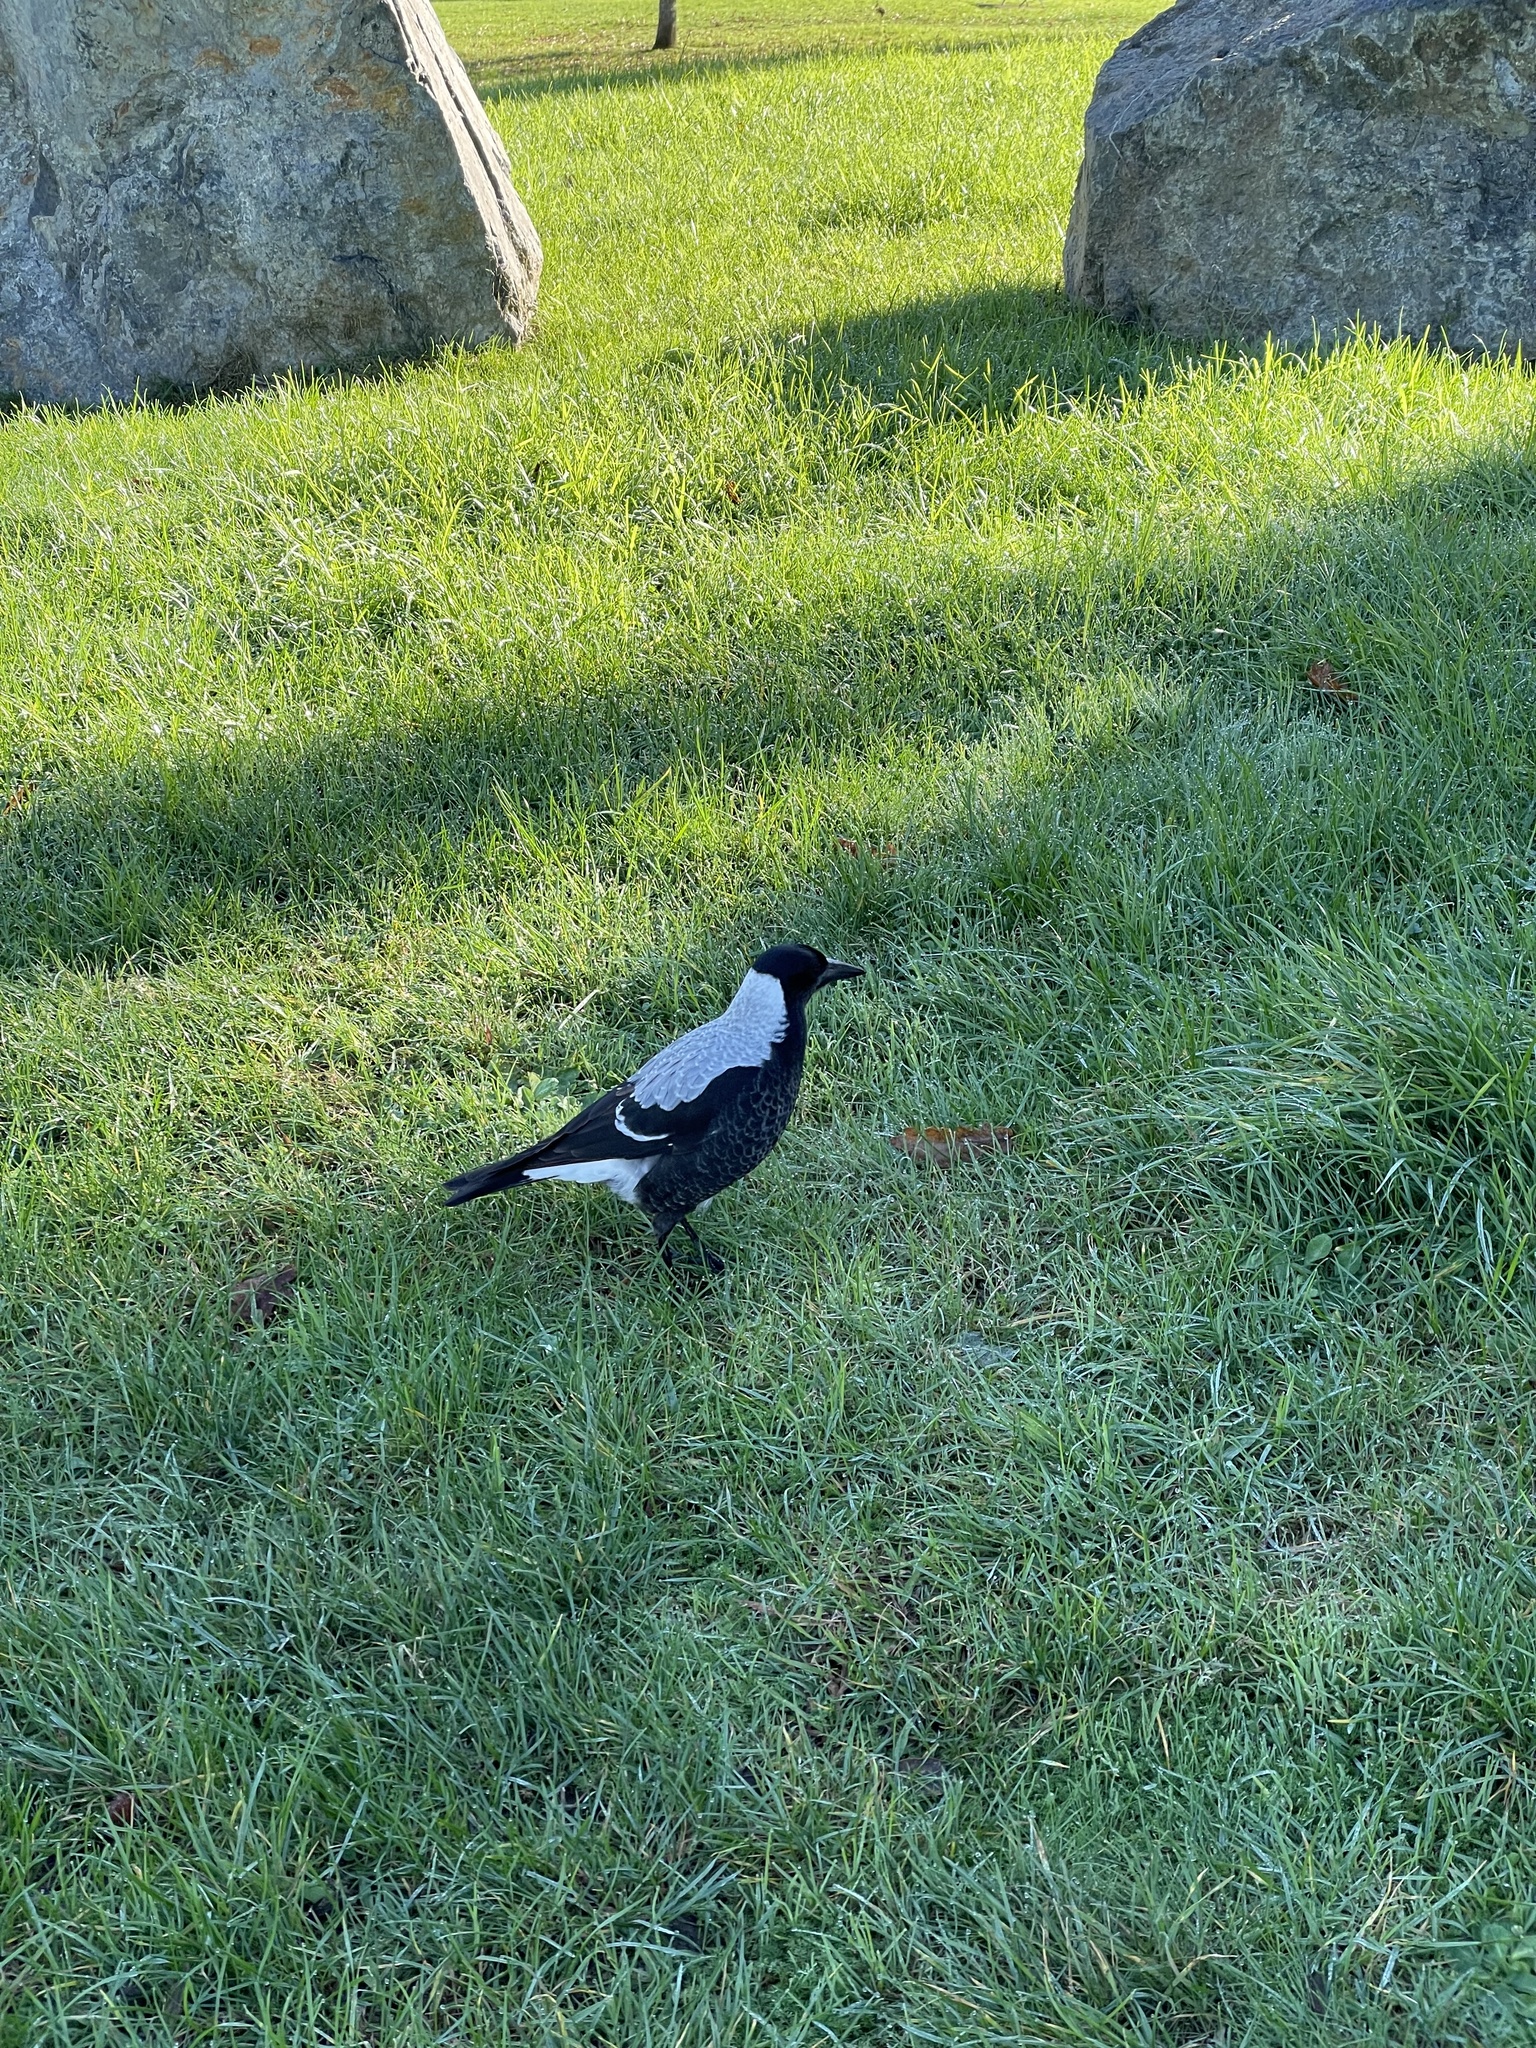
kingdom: Animalia
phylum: Chordata
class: Aves
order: Passeriformes
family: Cracticidae
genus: Gymnorhina
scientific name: Gymnorhina tibicen
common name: Australian magpie
